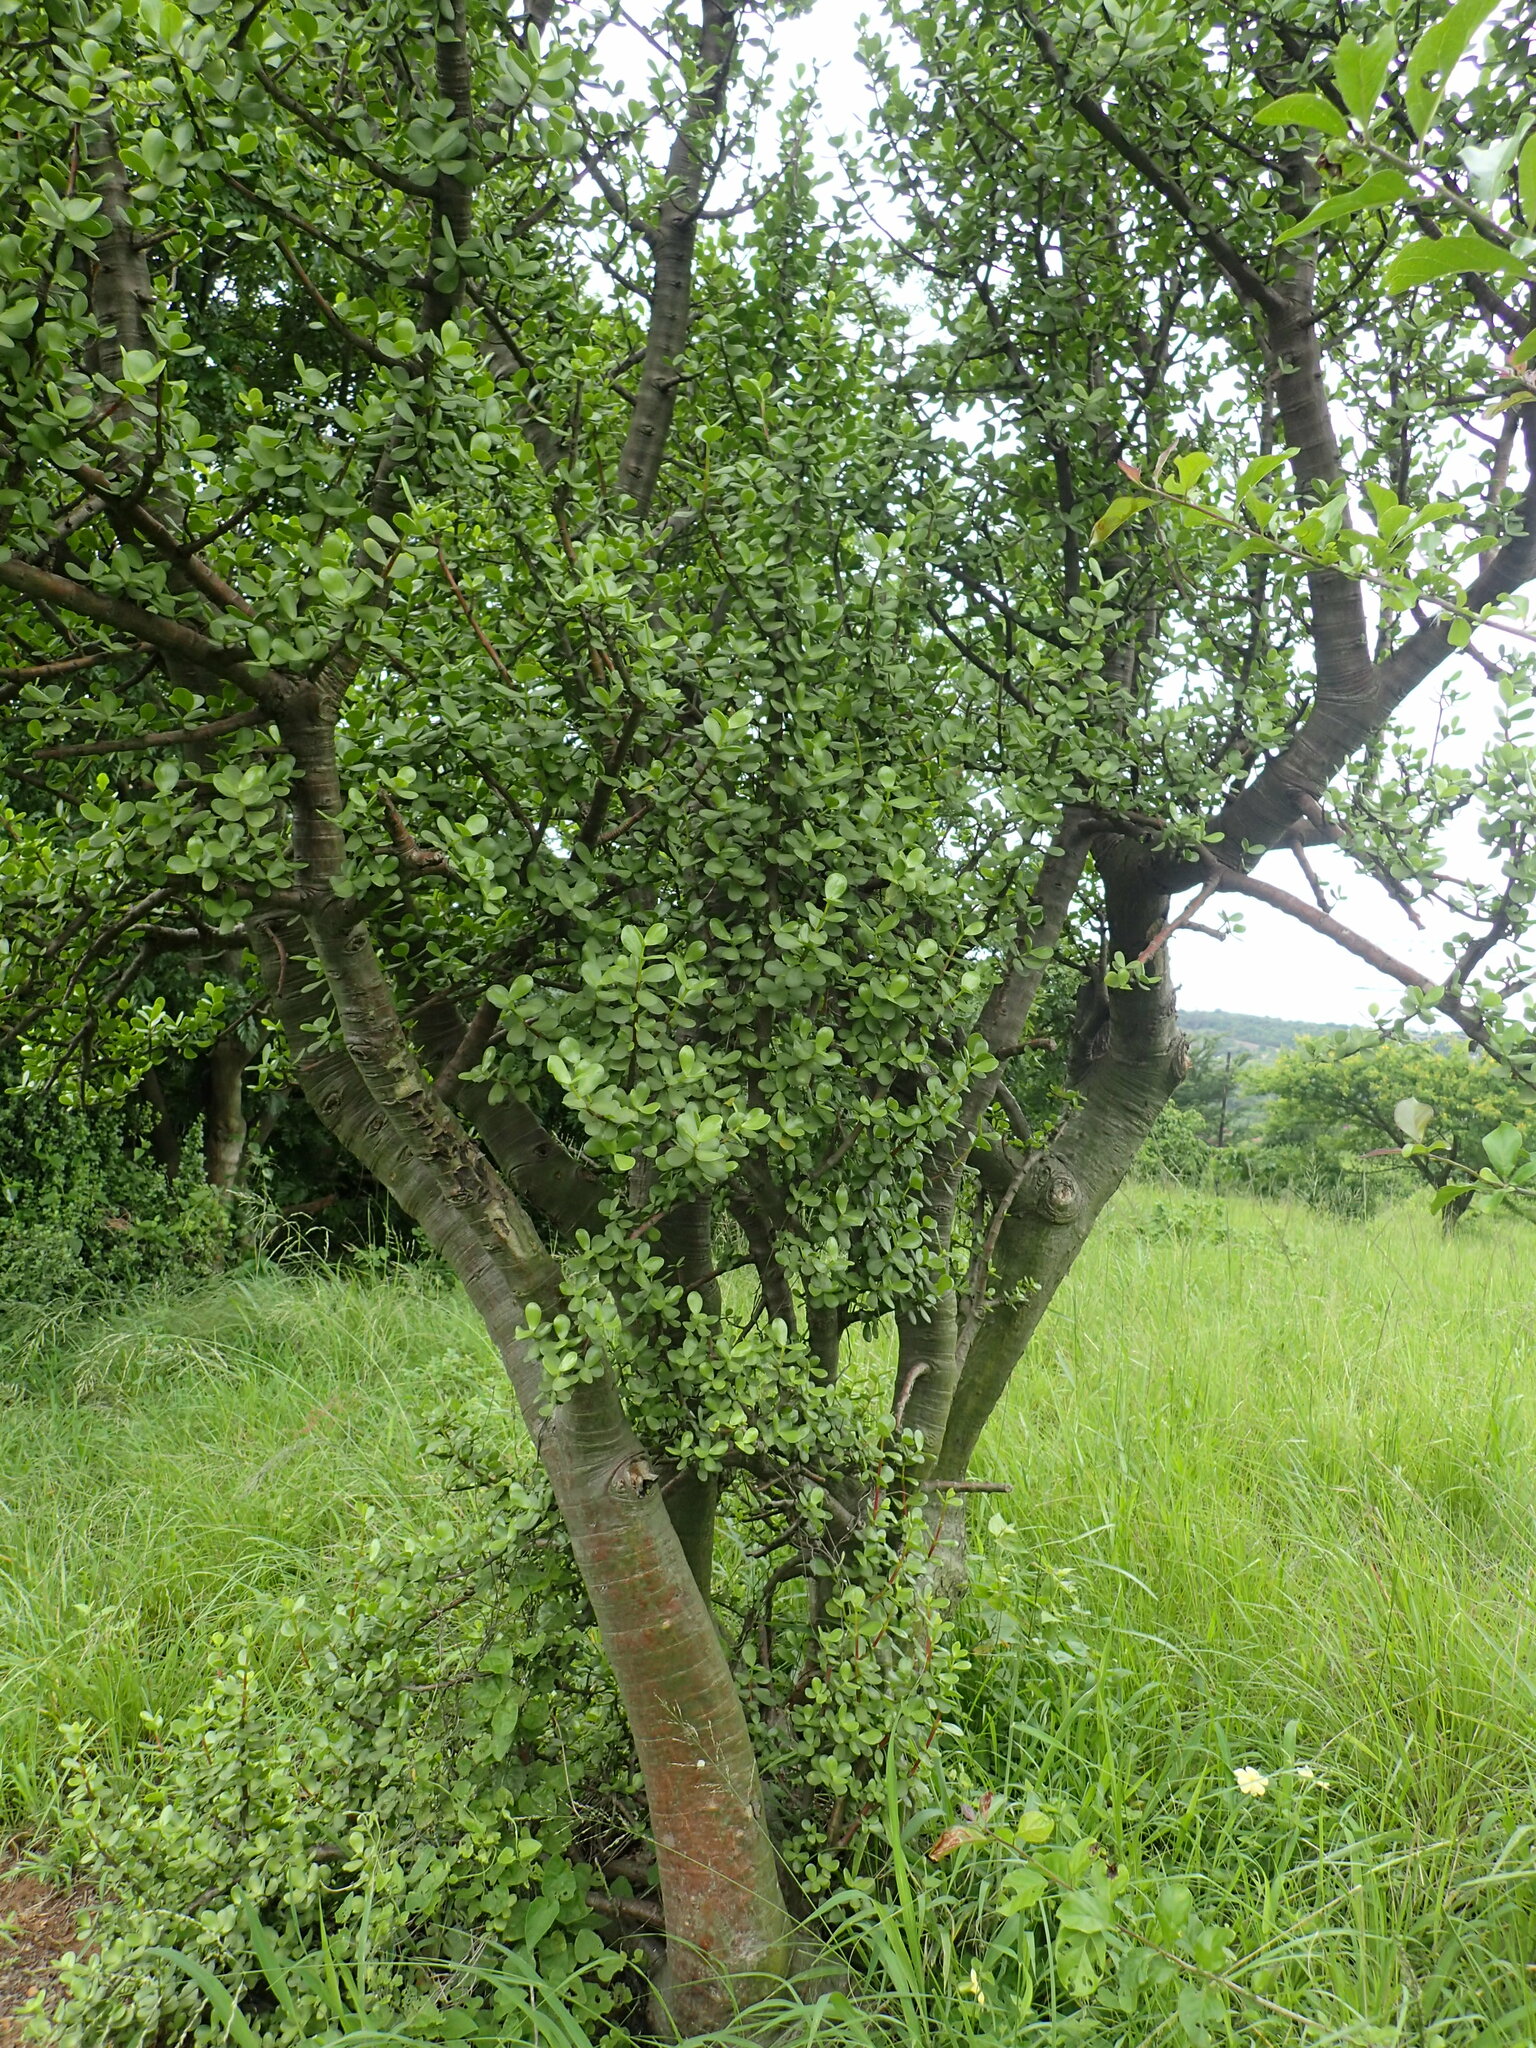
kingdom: Plantae
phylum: Tracheophyta
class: Magnoliopsida
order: Caryophyllales
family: Didiereaceae
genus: Portulacaria
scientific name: Portulacaria afra
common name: Elephant-bush
